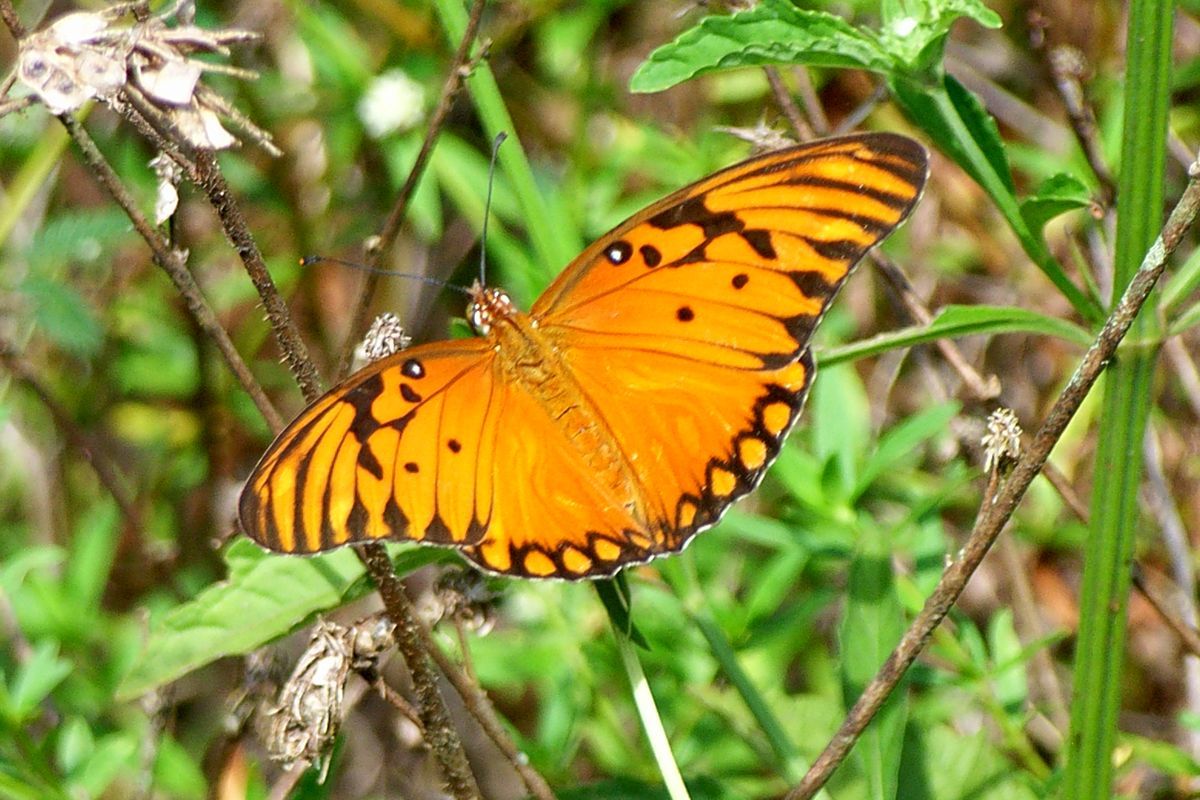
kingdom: Animalia
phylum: Arthropoda
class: Insecta
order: Lepidoptera
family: Nymphalidae
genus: Dione
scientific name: Dione vanillae
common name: Gulf fritillary
